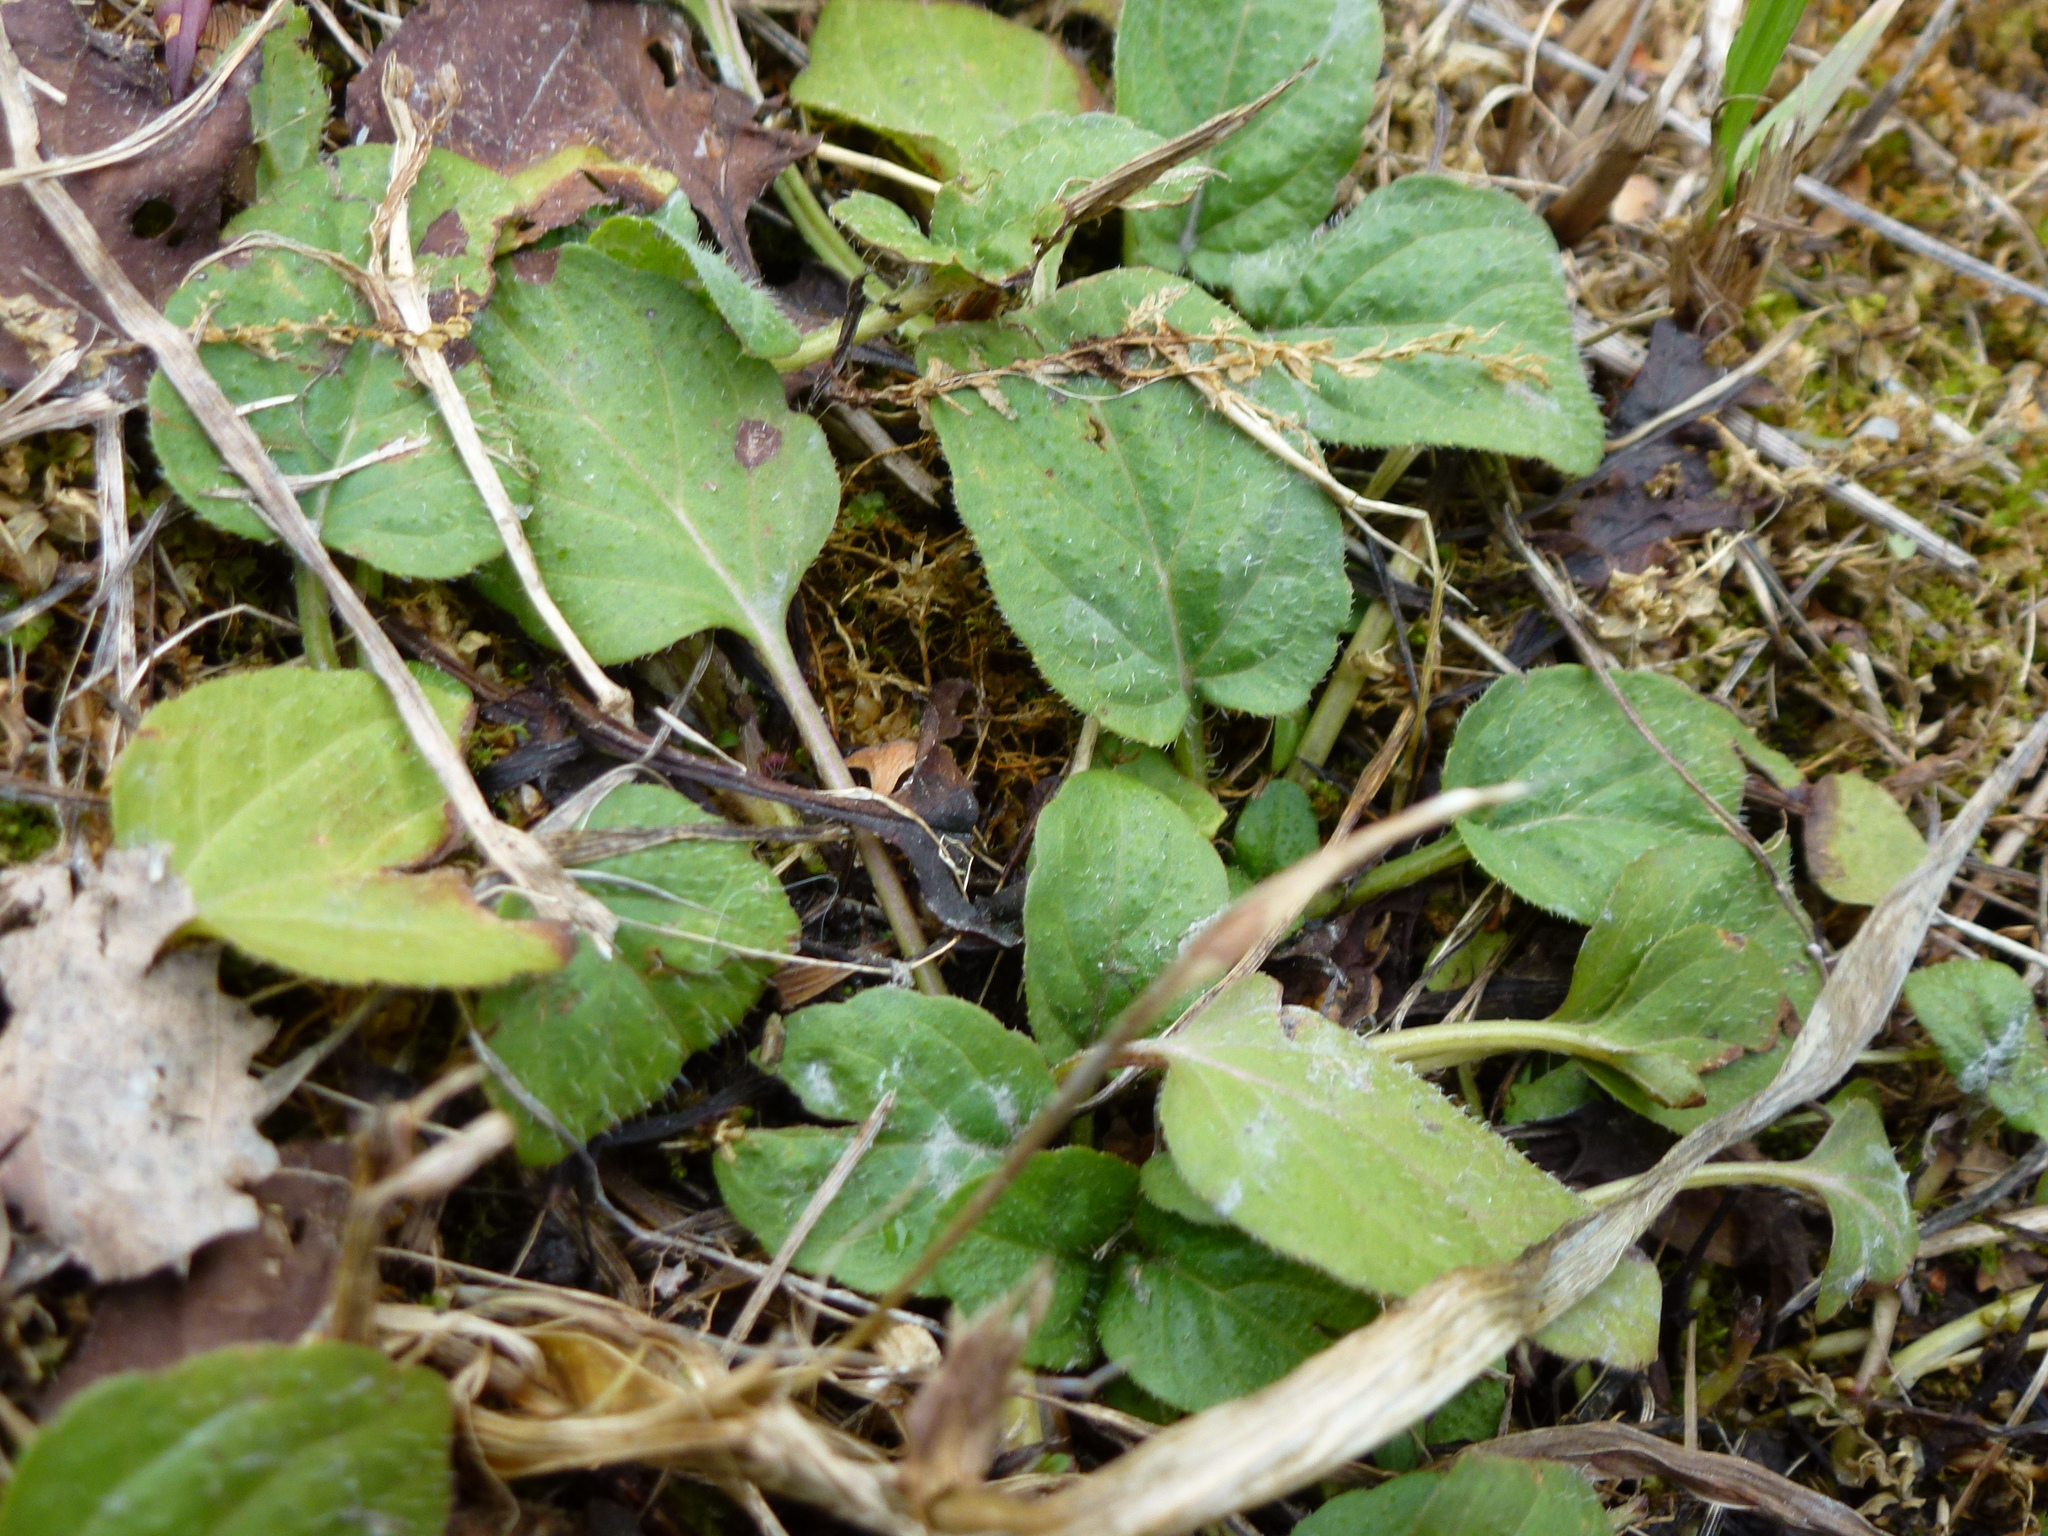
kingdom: Plantae
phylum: Tracheophyta
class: Magnoliopsida
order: Lamiales
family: Lamiaceae
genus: Prunella
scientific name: Prunella vulgaris
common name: Heal-all
